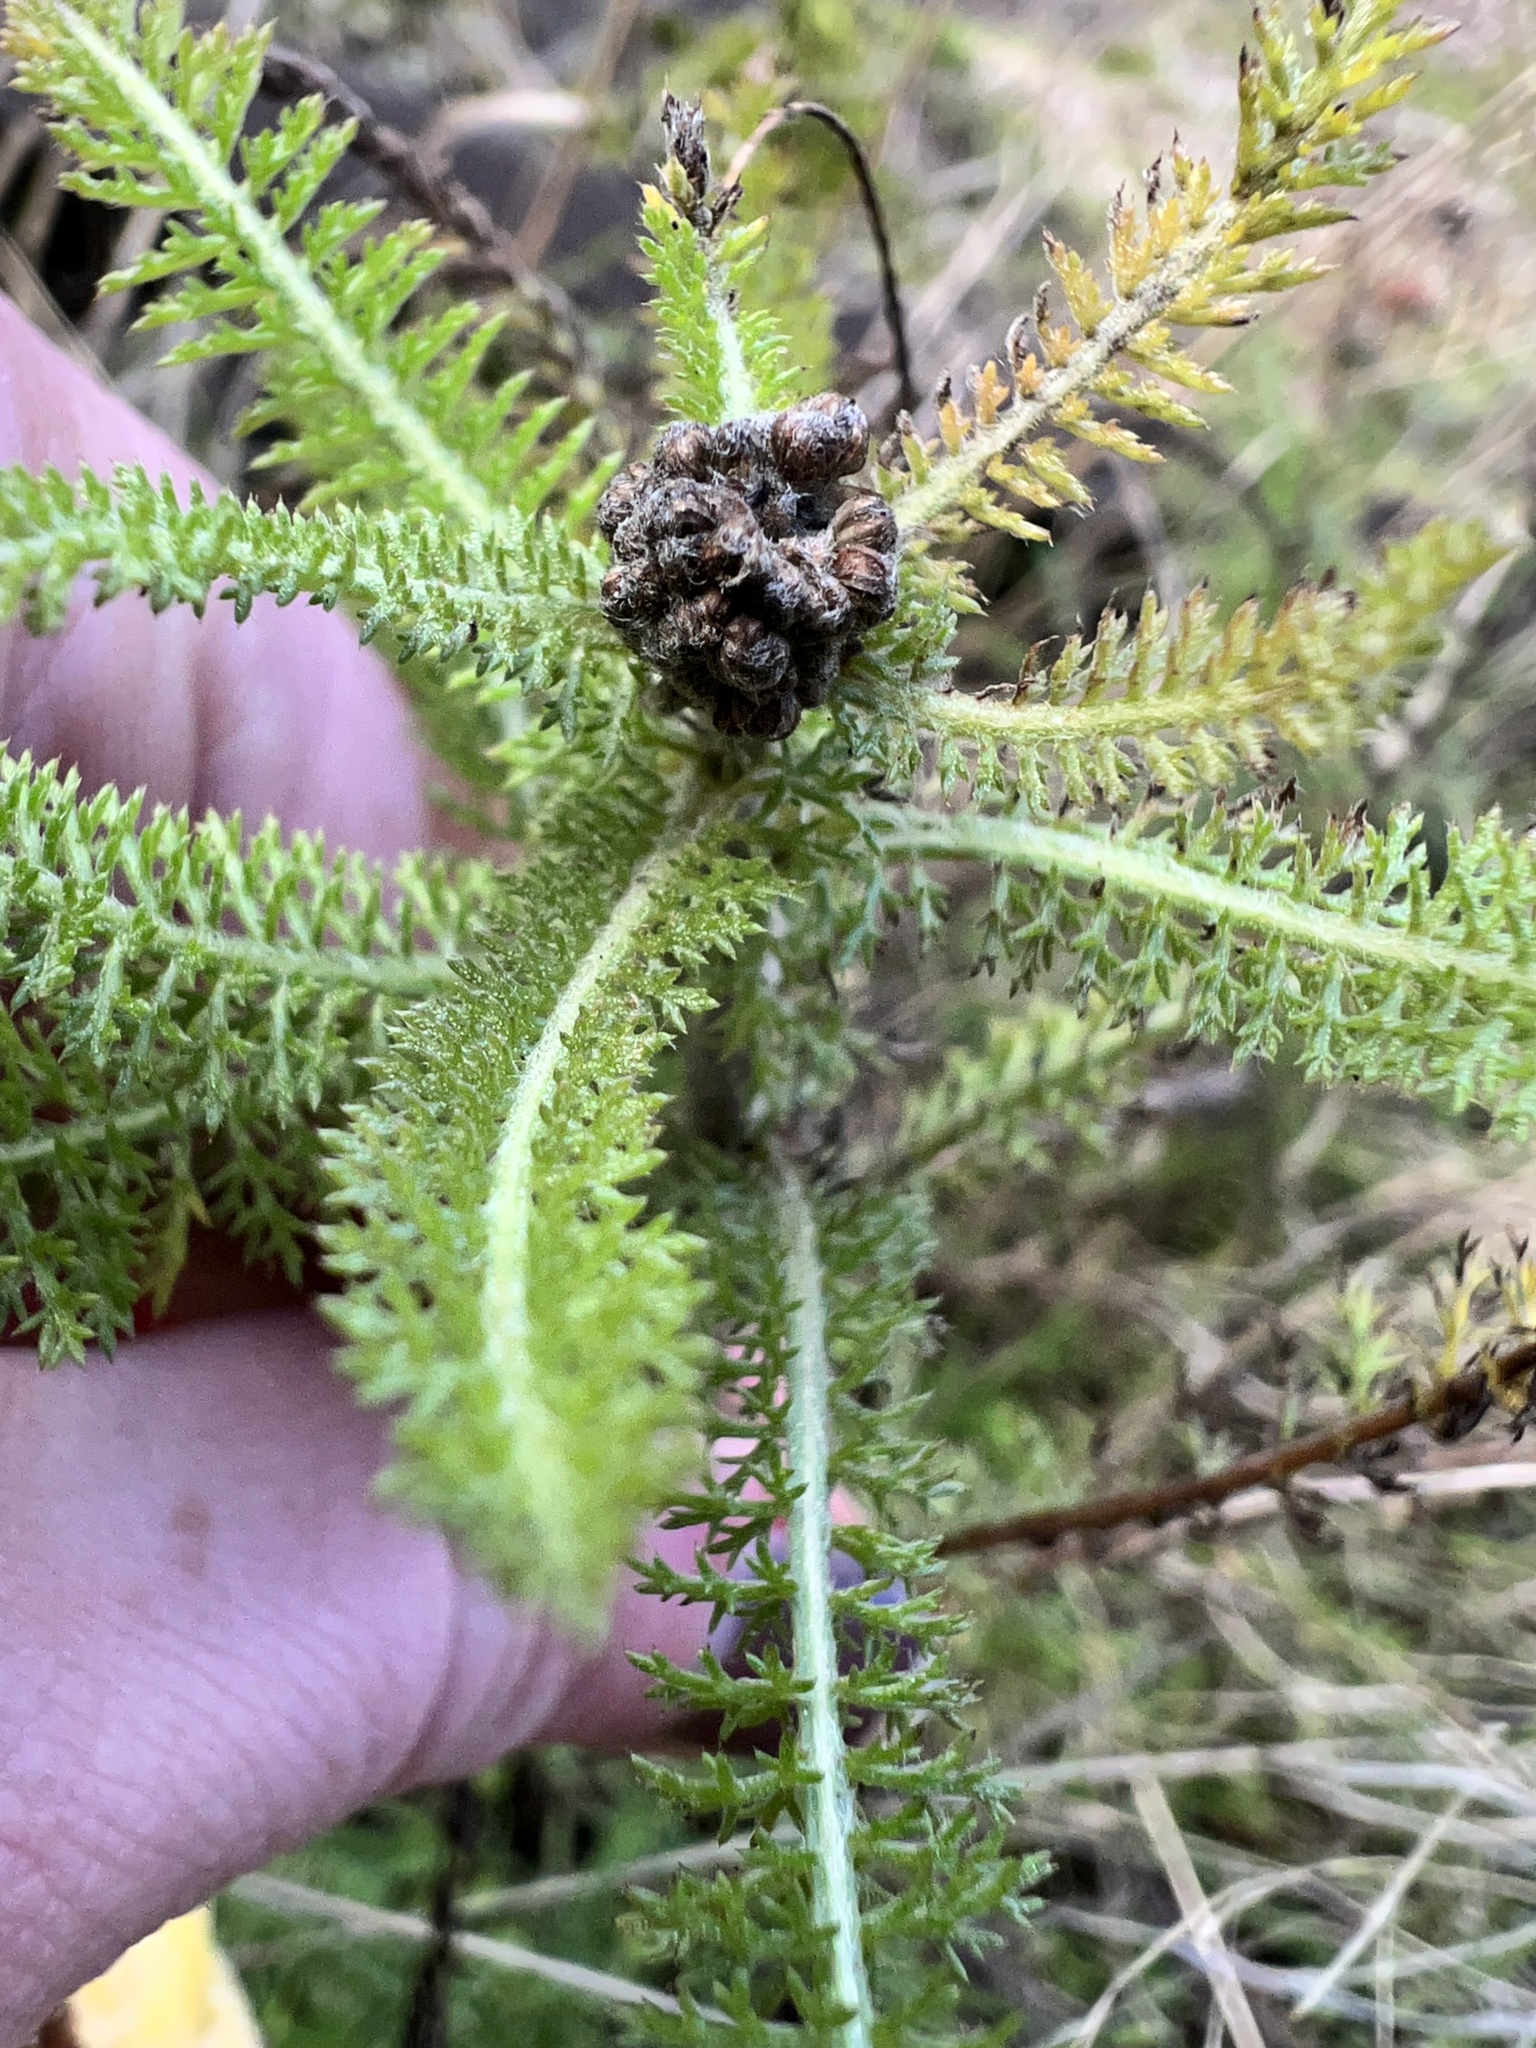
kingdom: Plantae
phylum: Tracheophyta
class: Magnoliopsida
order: Asterales
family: Asteraceae
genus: Achillea
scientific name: Achillea millefolium
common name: Yarrow
